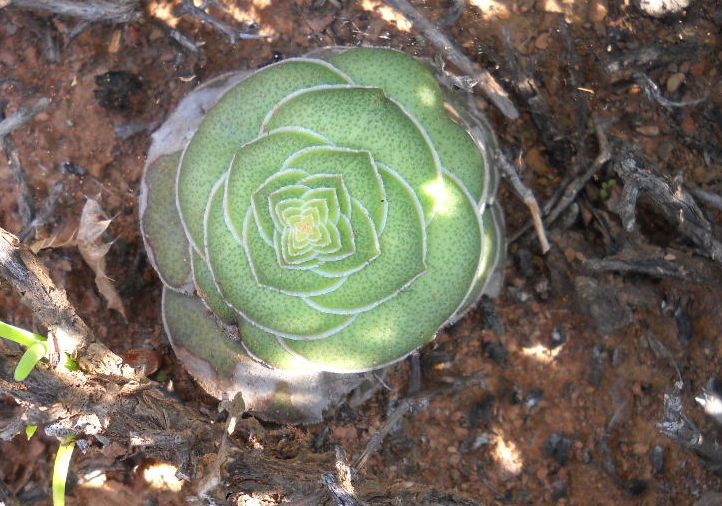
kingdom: Plantae
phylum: Tracheophyta
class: Magnoliopsida
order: Saxifragales
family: Crassulaceae
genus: Crassula
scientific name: Crassula hemisphaerica
